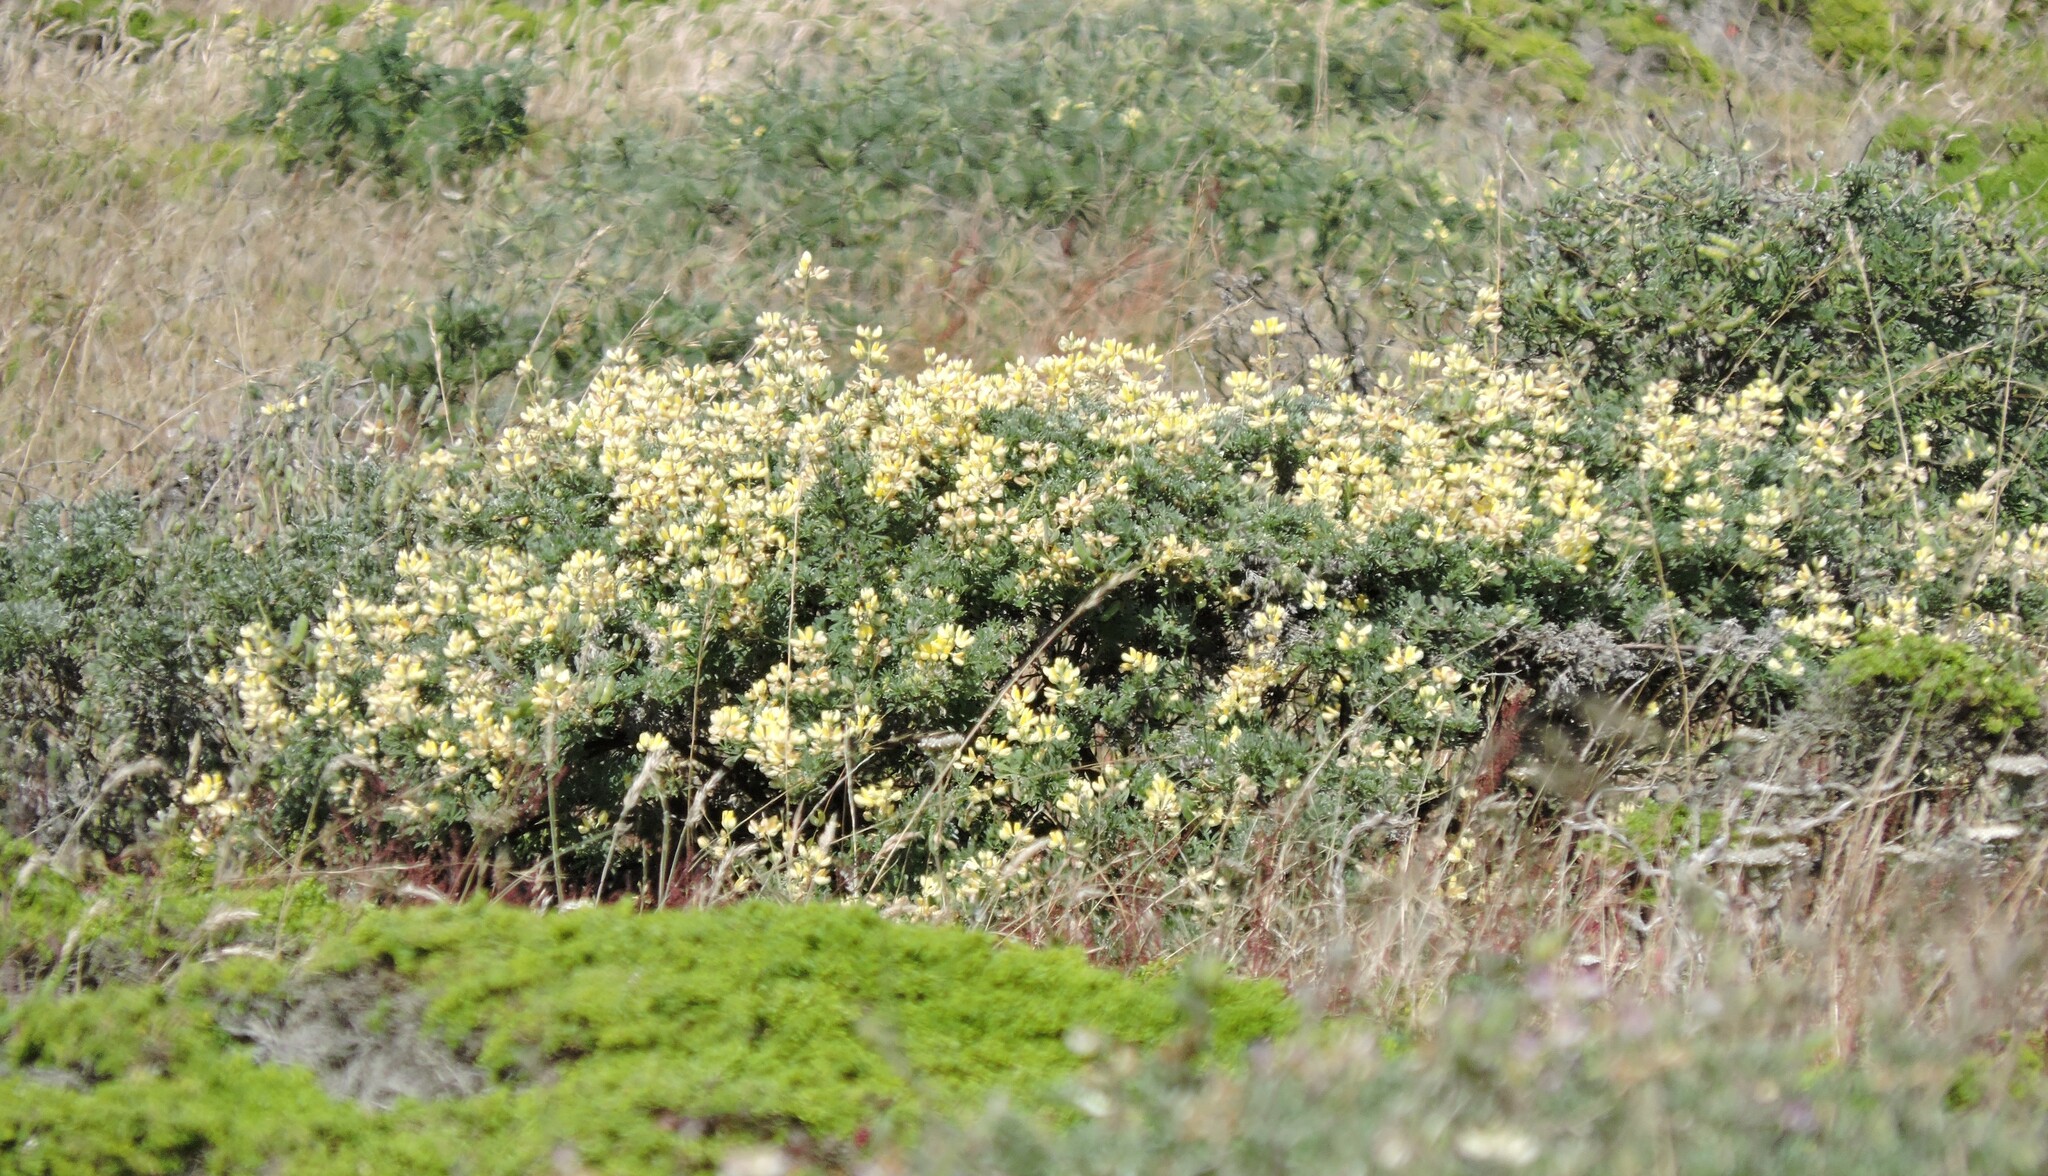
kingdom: Plantae
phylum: Tracheophyta
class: Magnoliopsida
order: Fabales
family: Fabaceae
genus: Lupinus
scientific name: Lupinus arboreus
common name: Yellow bush lupine
